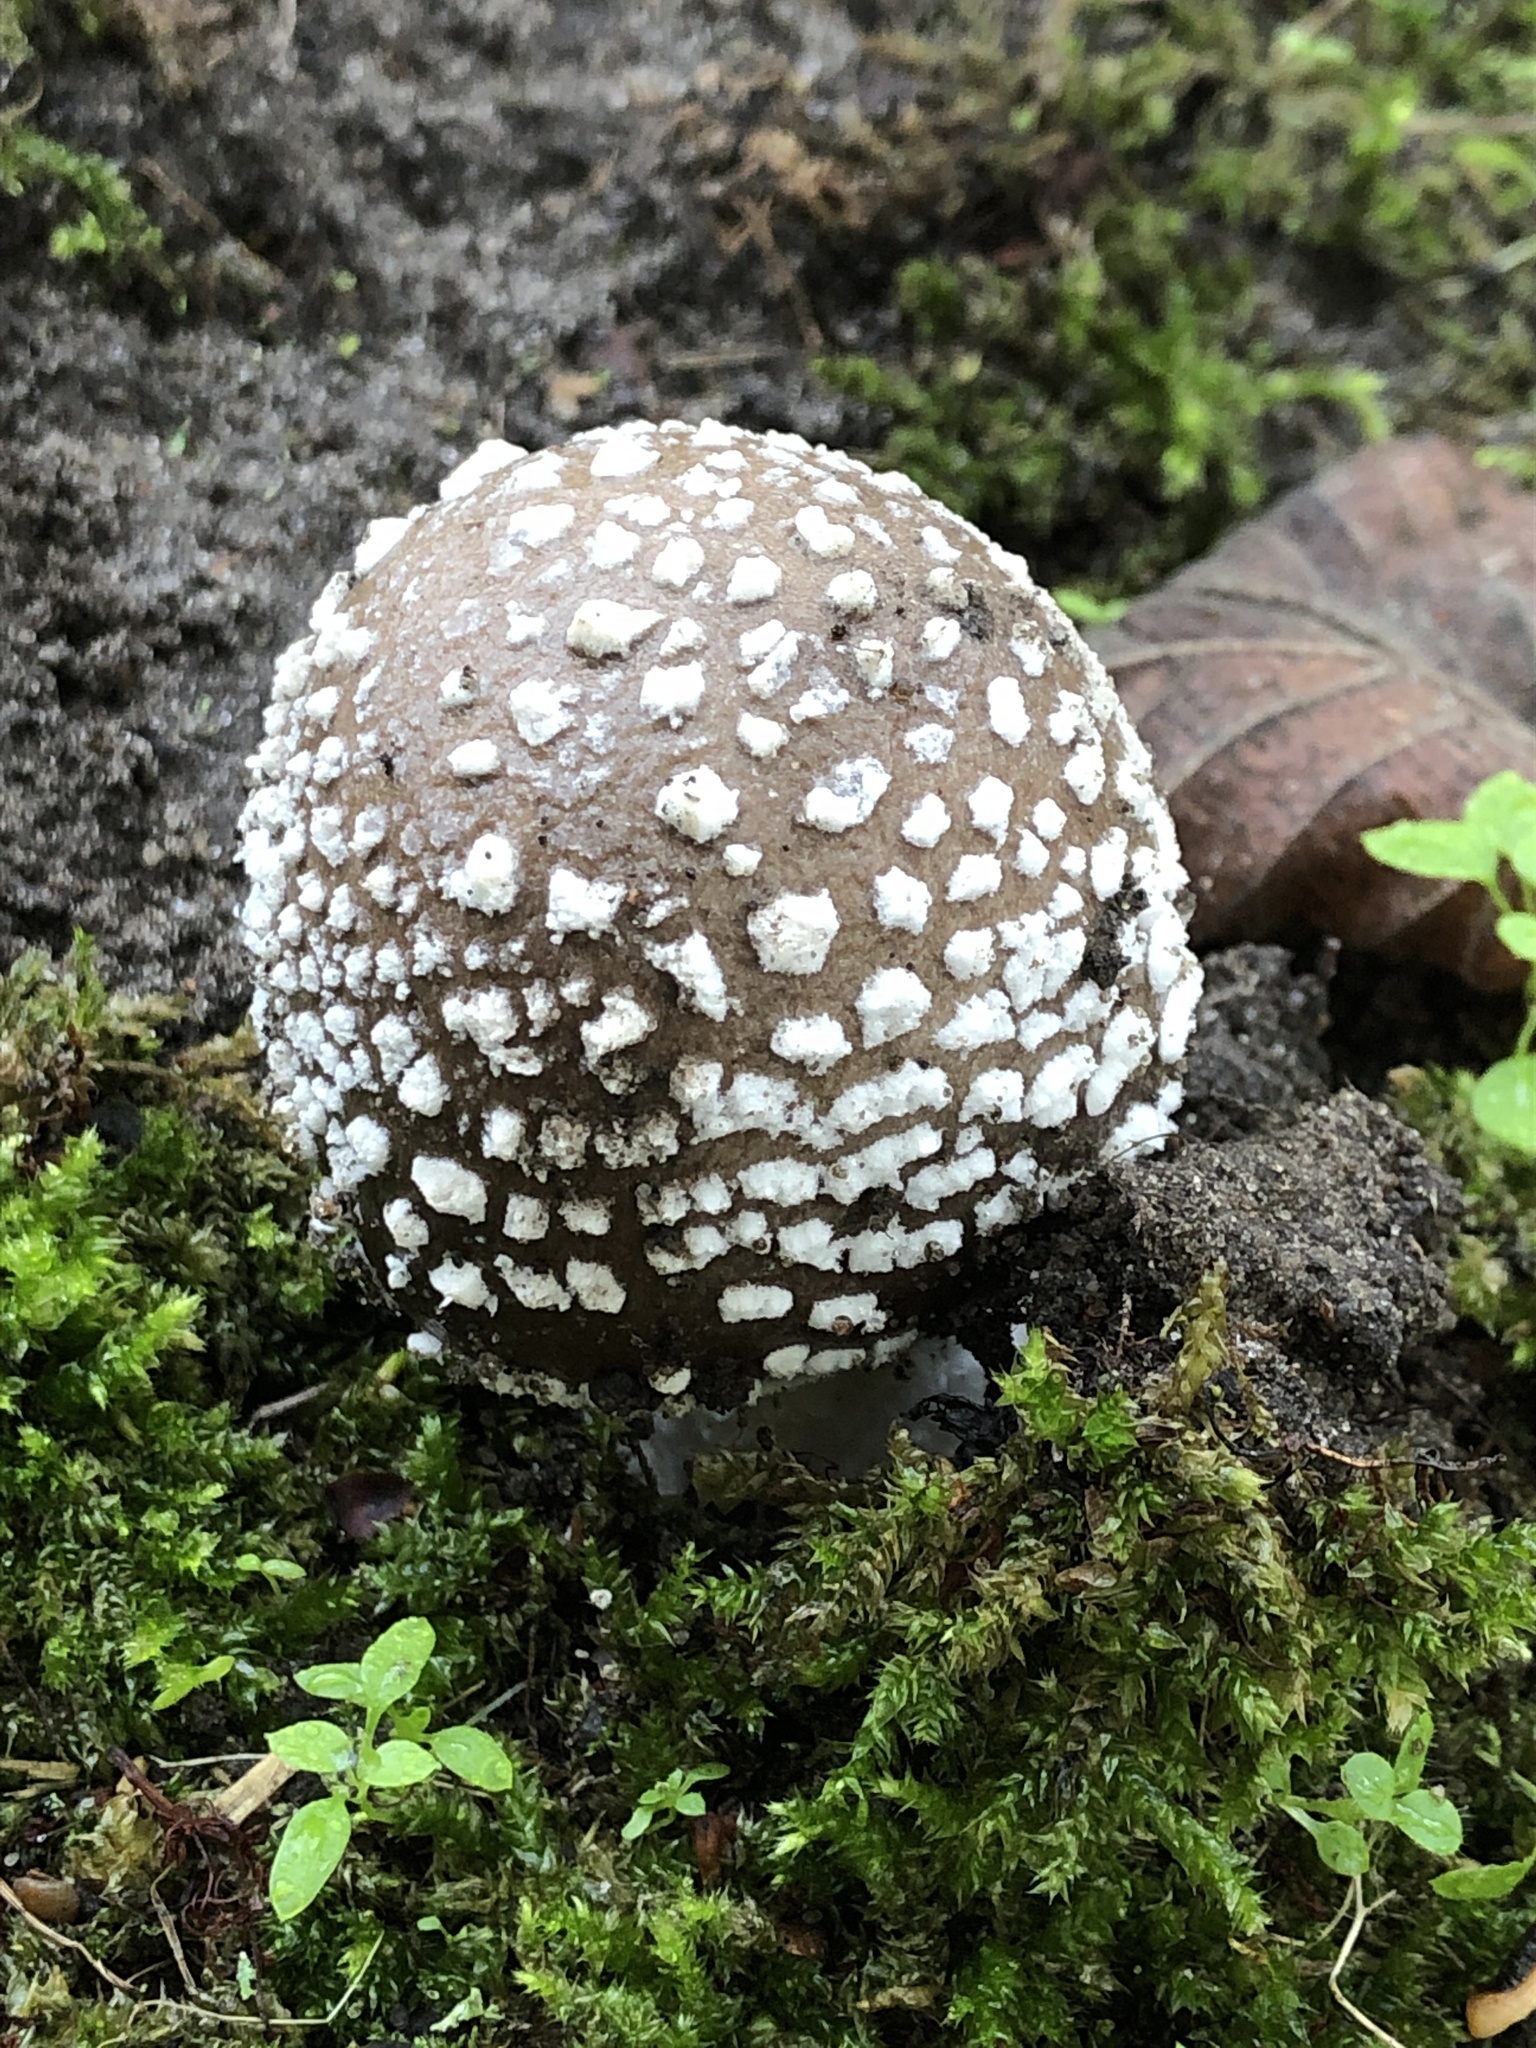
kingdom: Fungi
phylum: Basidiomycota
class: Agaricomycetes
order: Agaricales
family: Amanitaceae
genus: Amanita
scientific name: Amanita pantherina
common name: Panthercap
